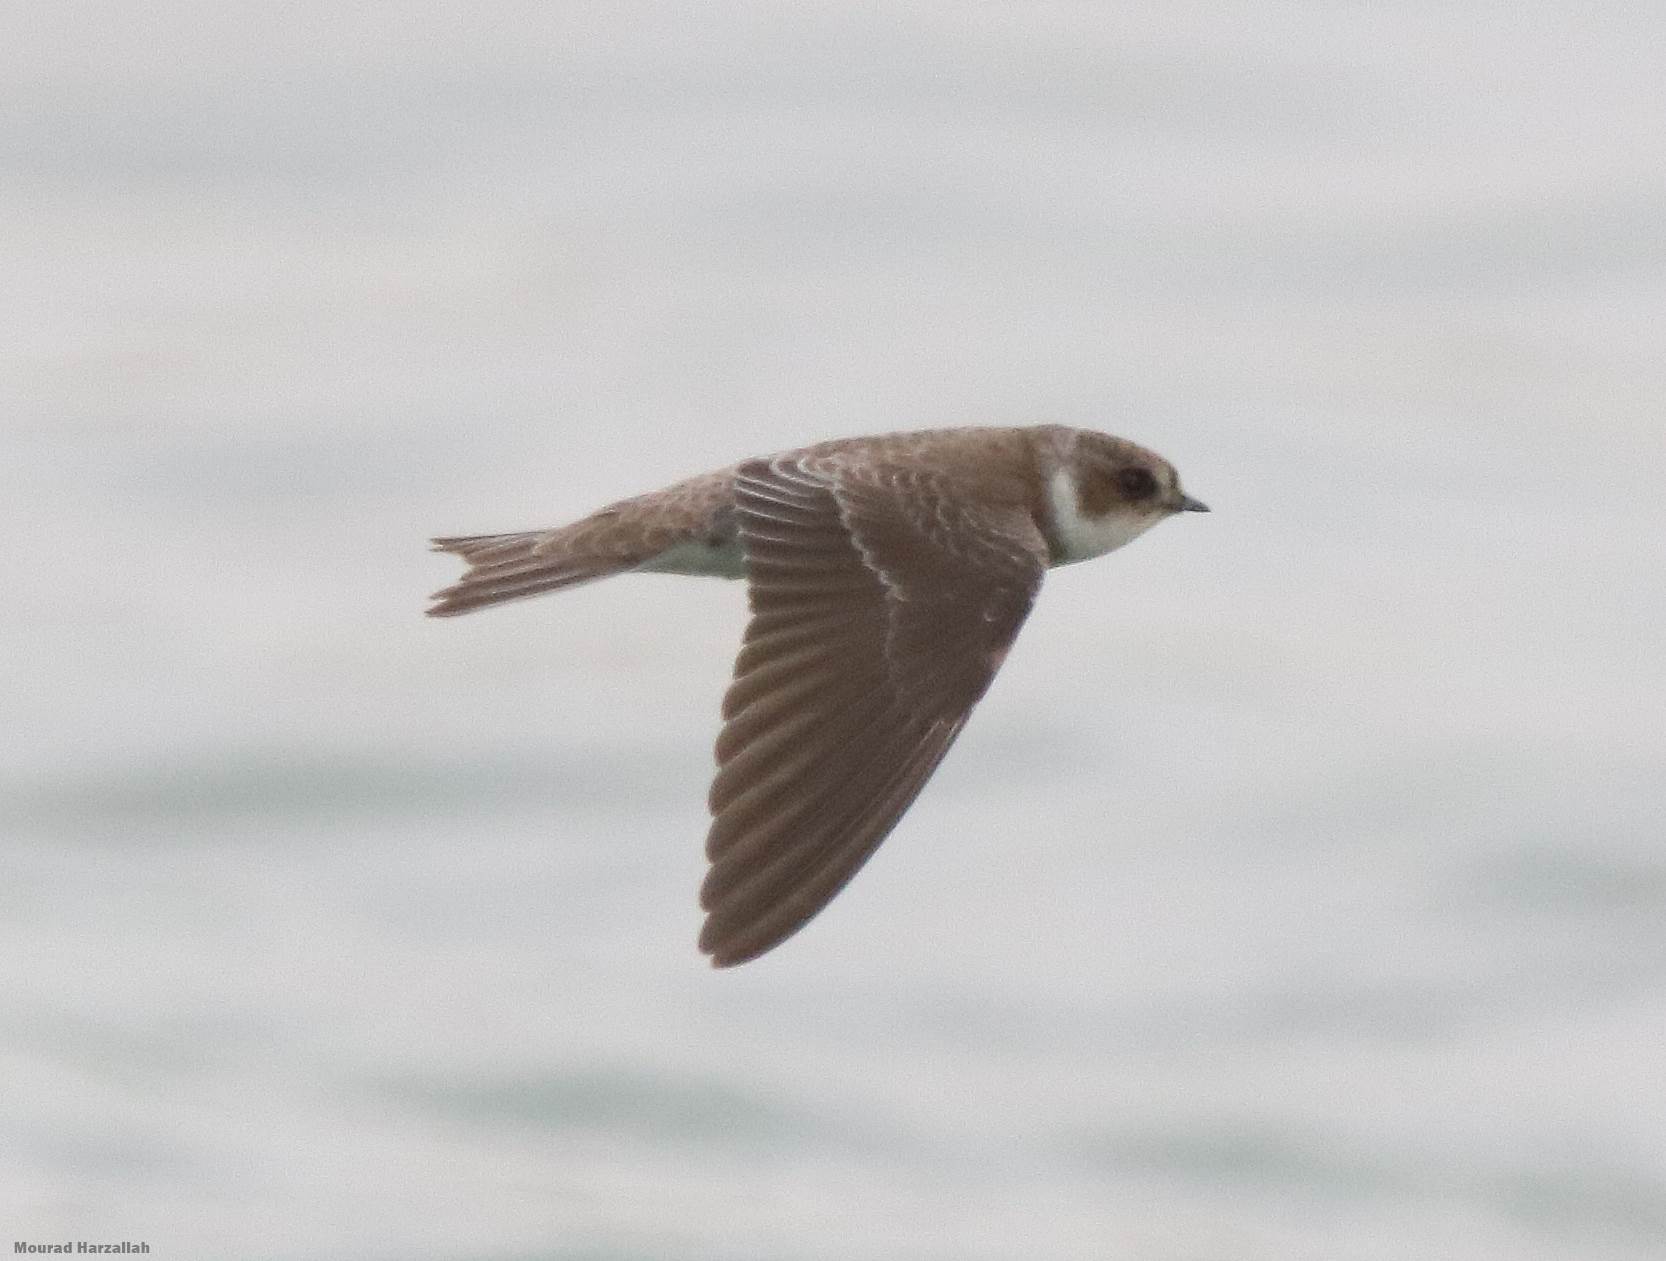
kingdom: Animalia
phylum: Chordata
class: Aves
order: Passeriformes
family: Hirundinidae
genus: Riparia
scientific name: Riparia riparia
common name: Sand martin
